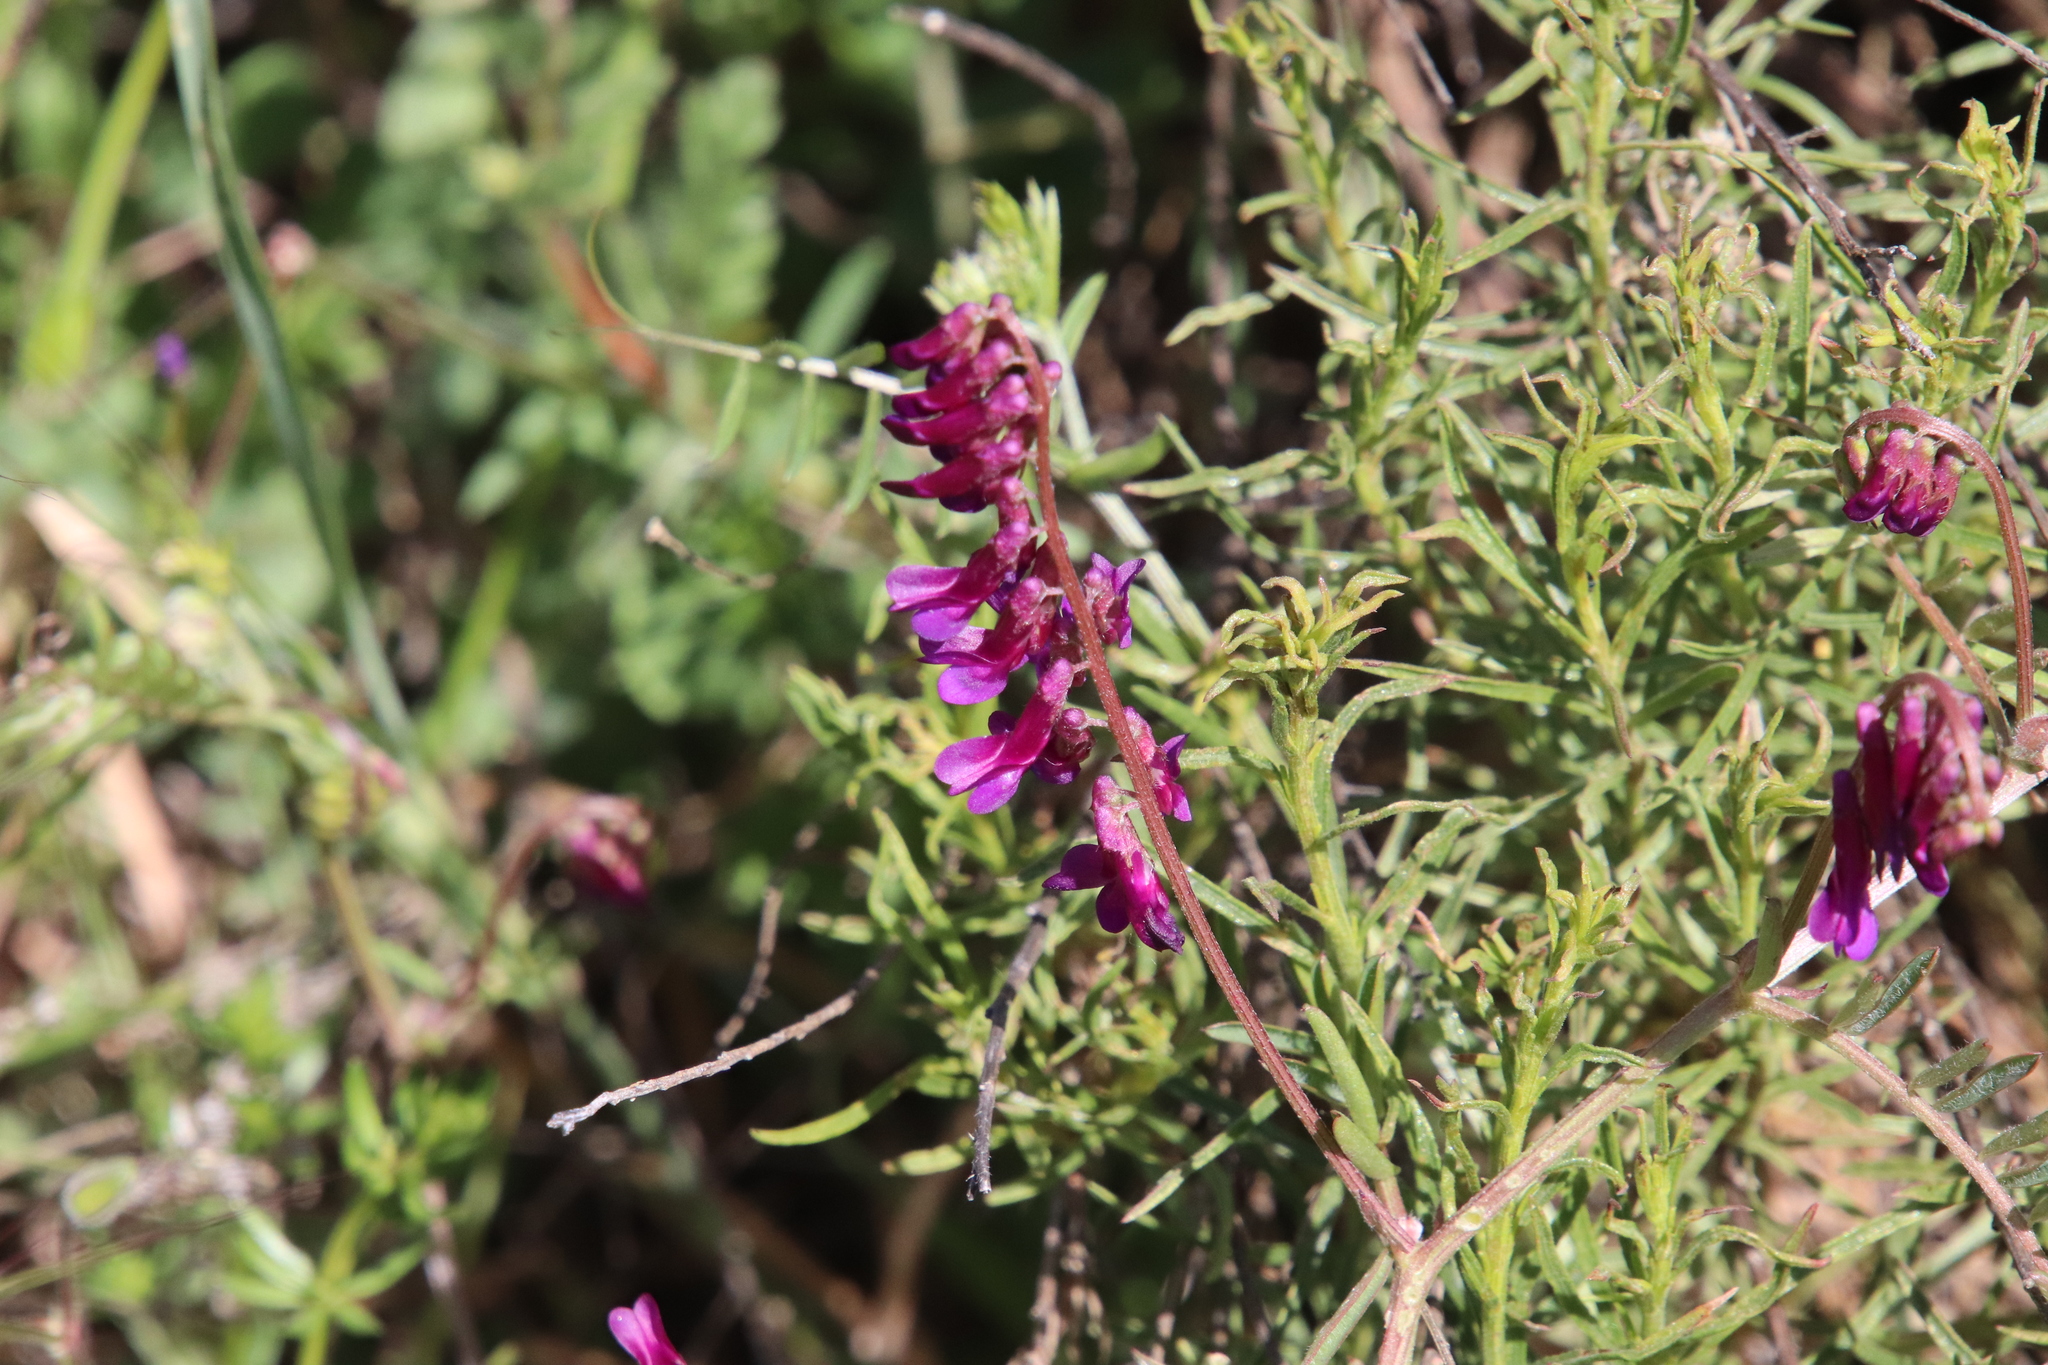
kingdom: Plantae
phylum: Tracheophyta
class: Magnoliopsida
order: Fabales
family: Fabaceae
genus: Vicia
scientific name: Vicia villosa
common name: Fodder vetch
